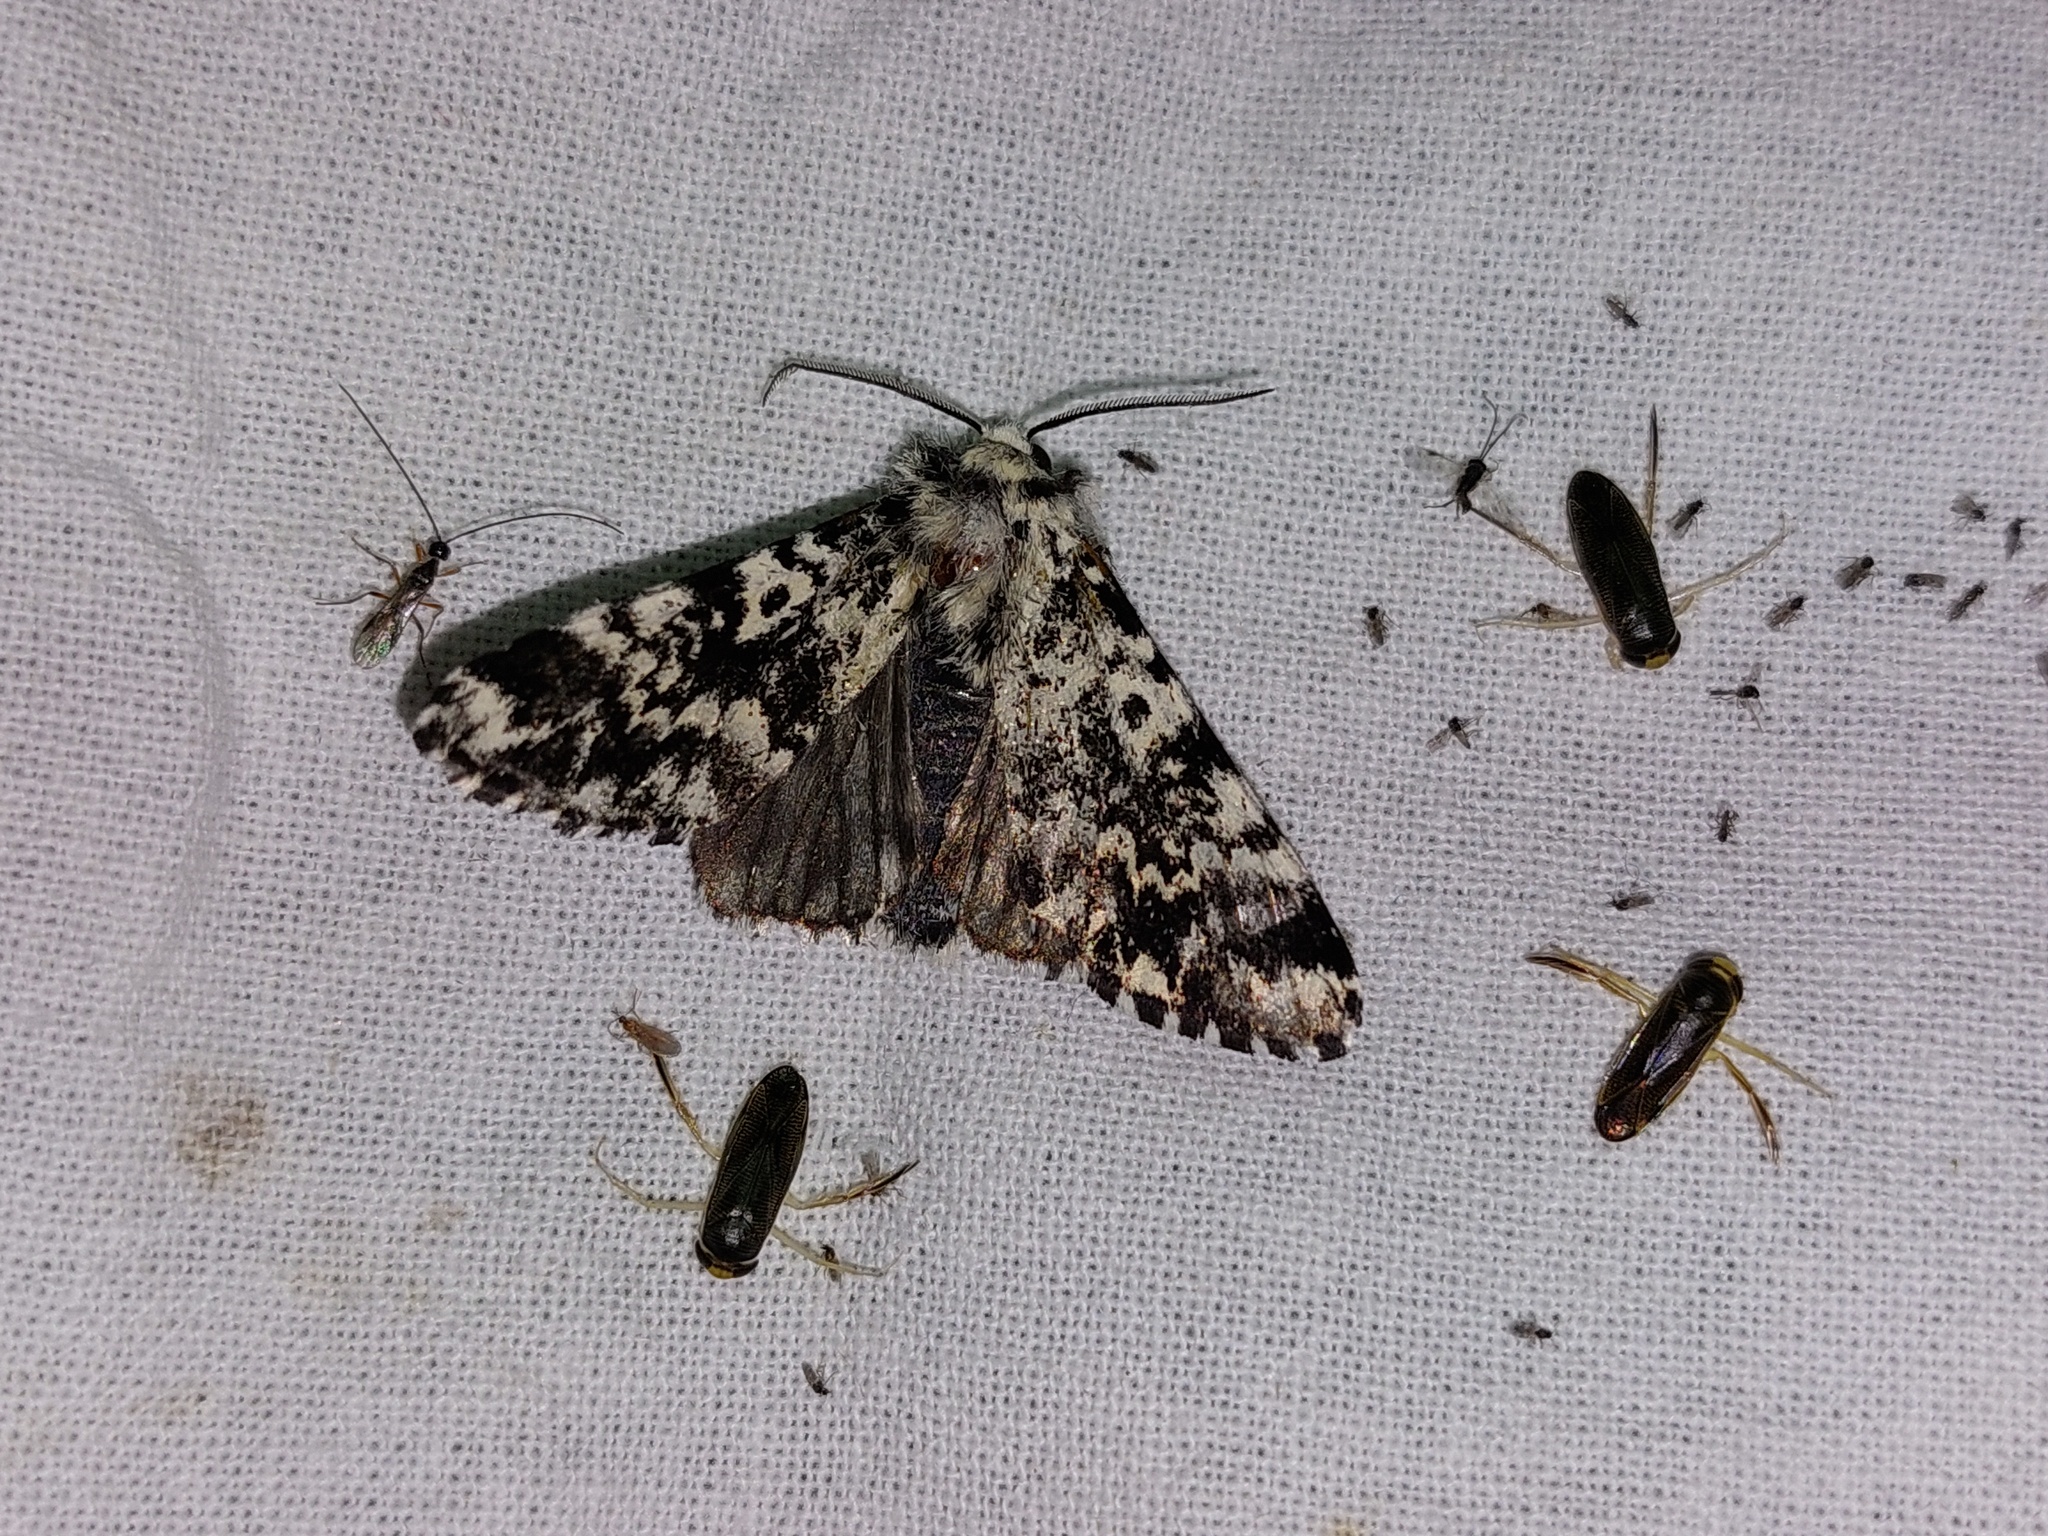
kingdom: Animalia
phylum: Arthropoda
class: Insecta
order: Lepidoptera
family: Noctuidae
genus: Panthea
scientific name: Panthea coenobita
